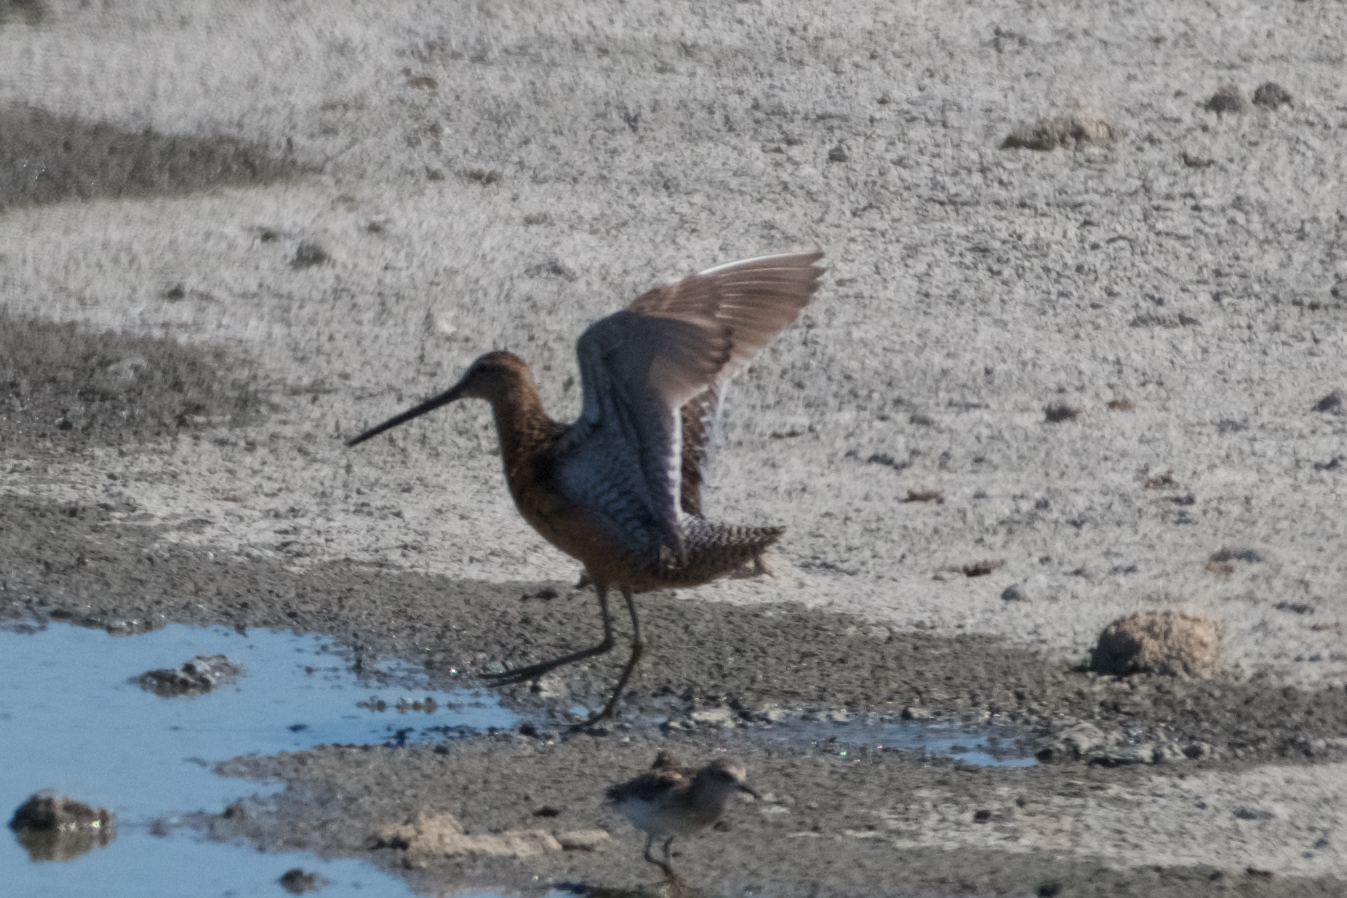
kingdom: Animalia
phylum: Chordata
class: Aves
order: Charadriiformes
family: Scolopacidae
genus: Limnodromus
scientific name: Limnodromus scolopaceus
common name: Long-billed dowitcher
